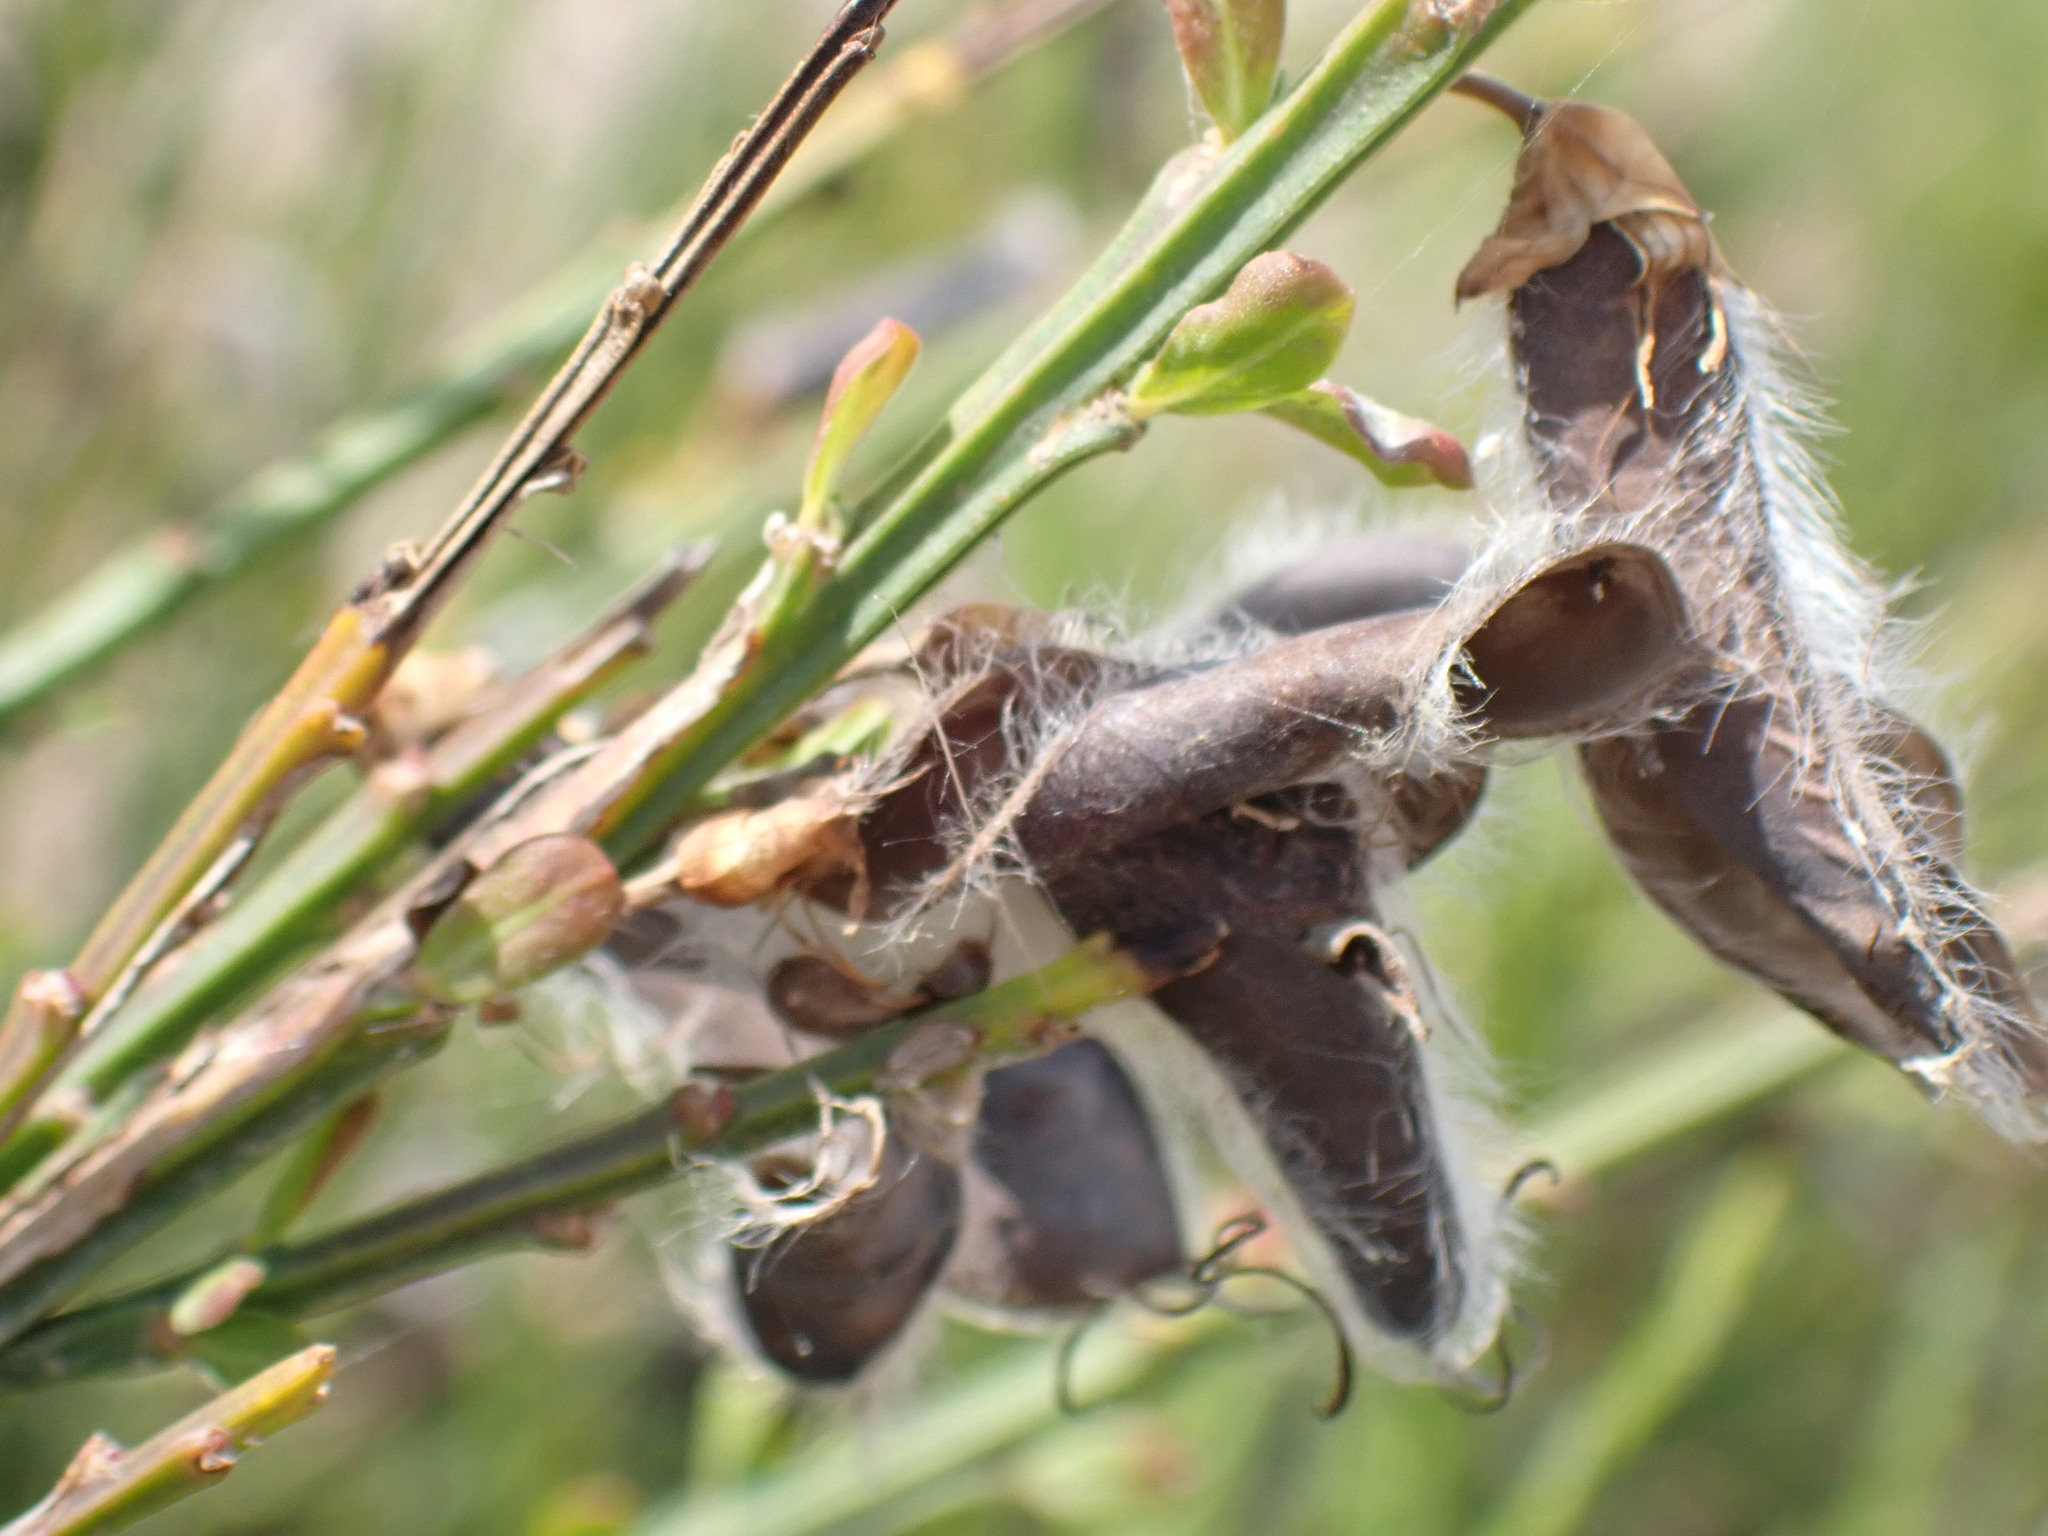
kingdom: Plantae
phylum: Tracheophyta
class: Magnoliopsida
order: Fabales
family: Fabaceae
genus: Cytisus
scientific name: Cytisus scoparius
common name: Scotch broom
